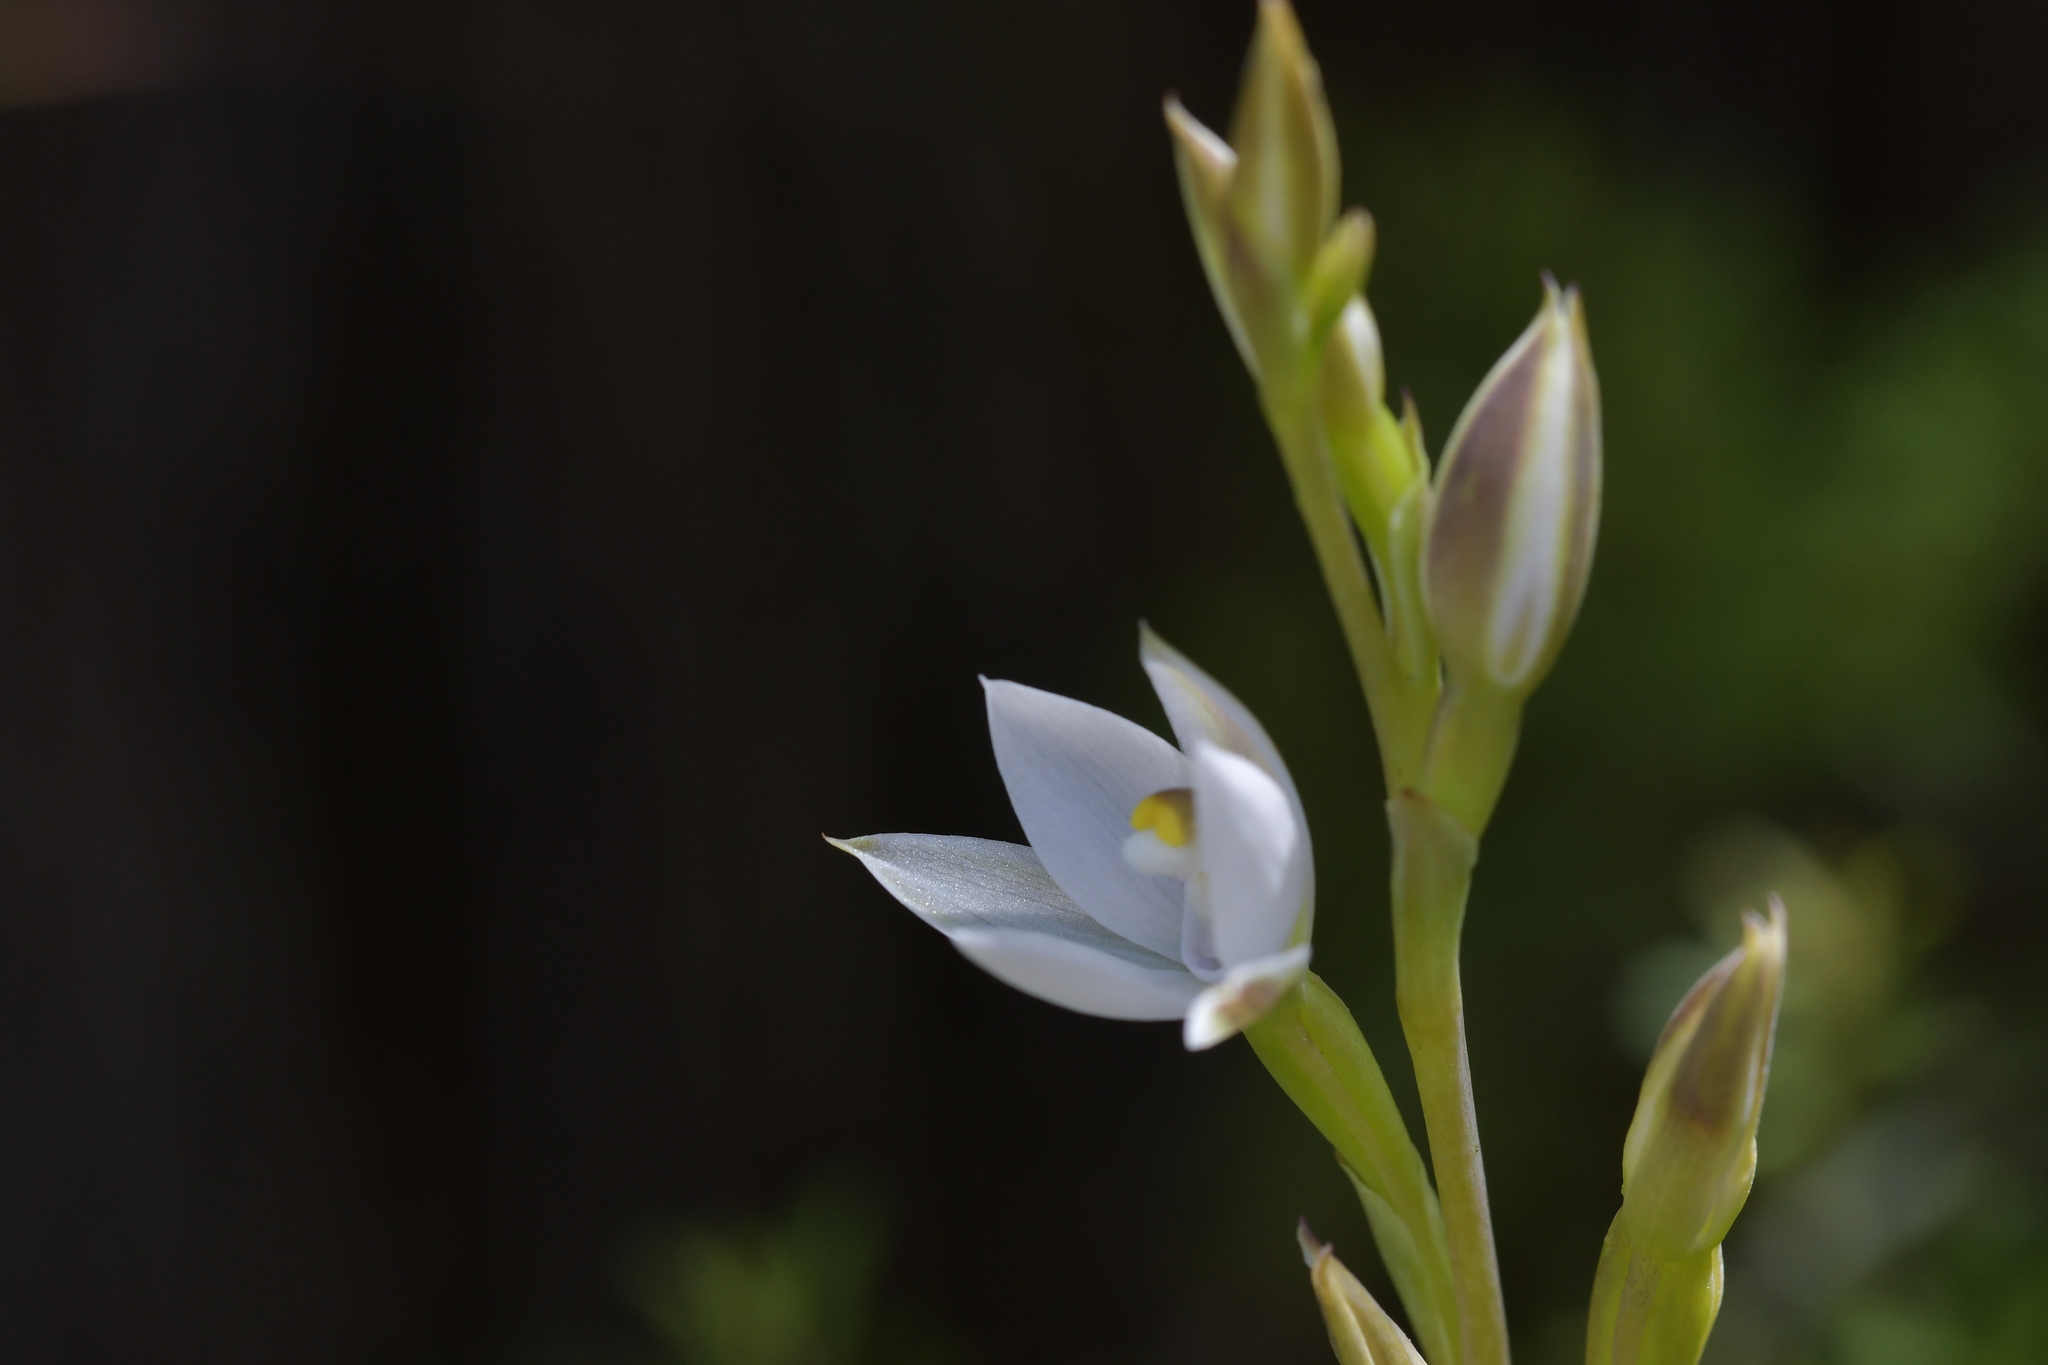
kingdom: Plantae
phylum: Tracheophyta
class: Liliopsida
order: Asparagales
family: Orchidaceae
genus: Thelymitra
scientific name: Thelymitra longifolia
